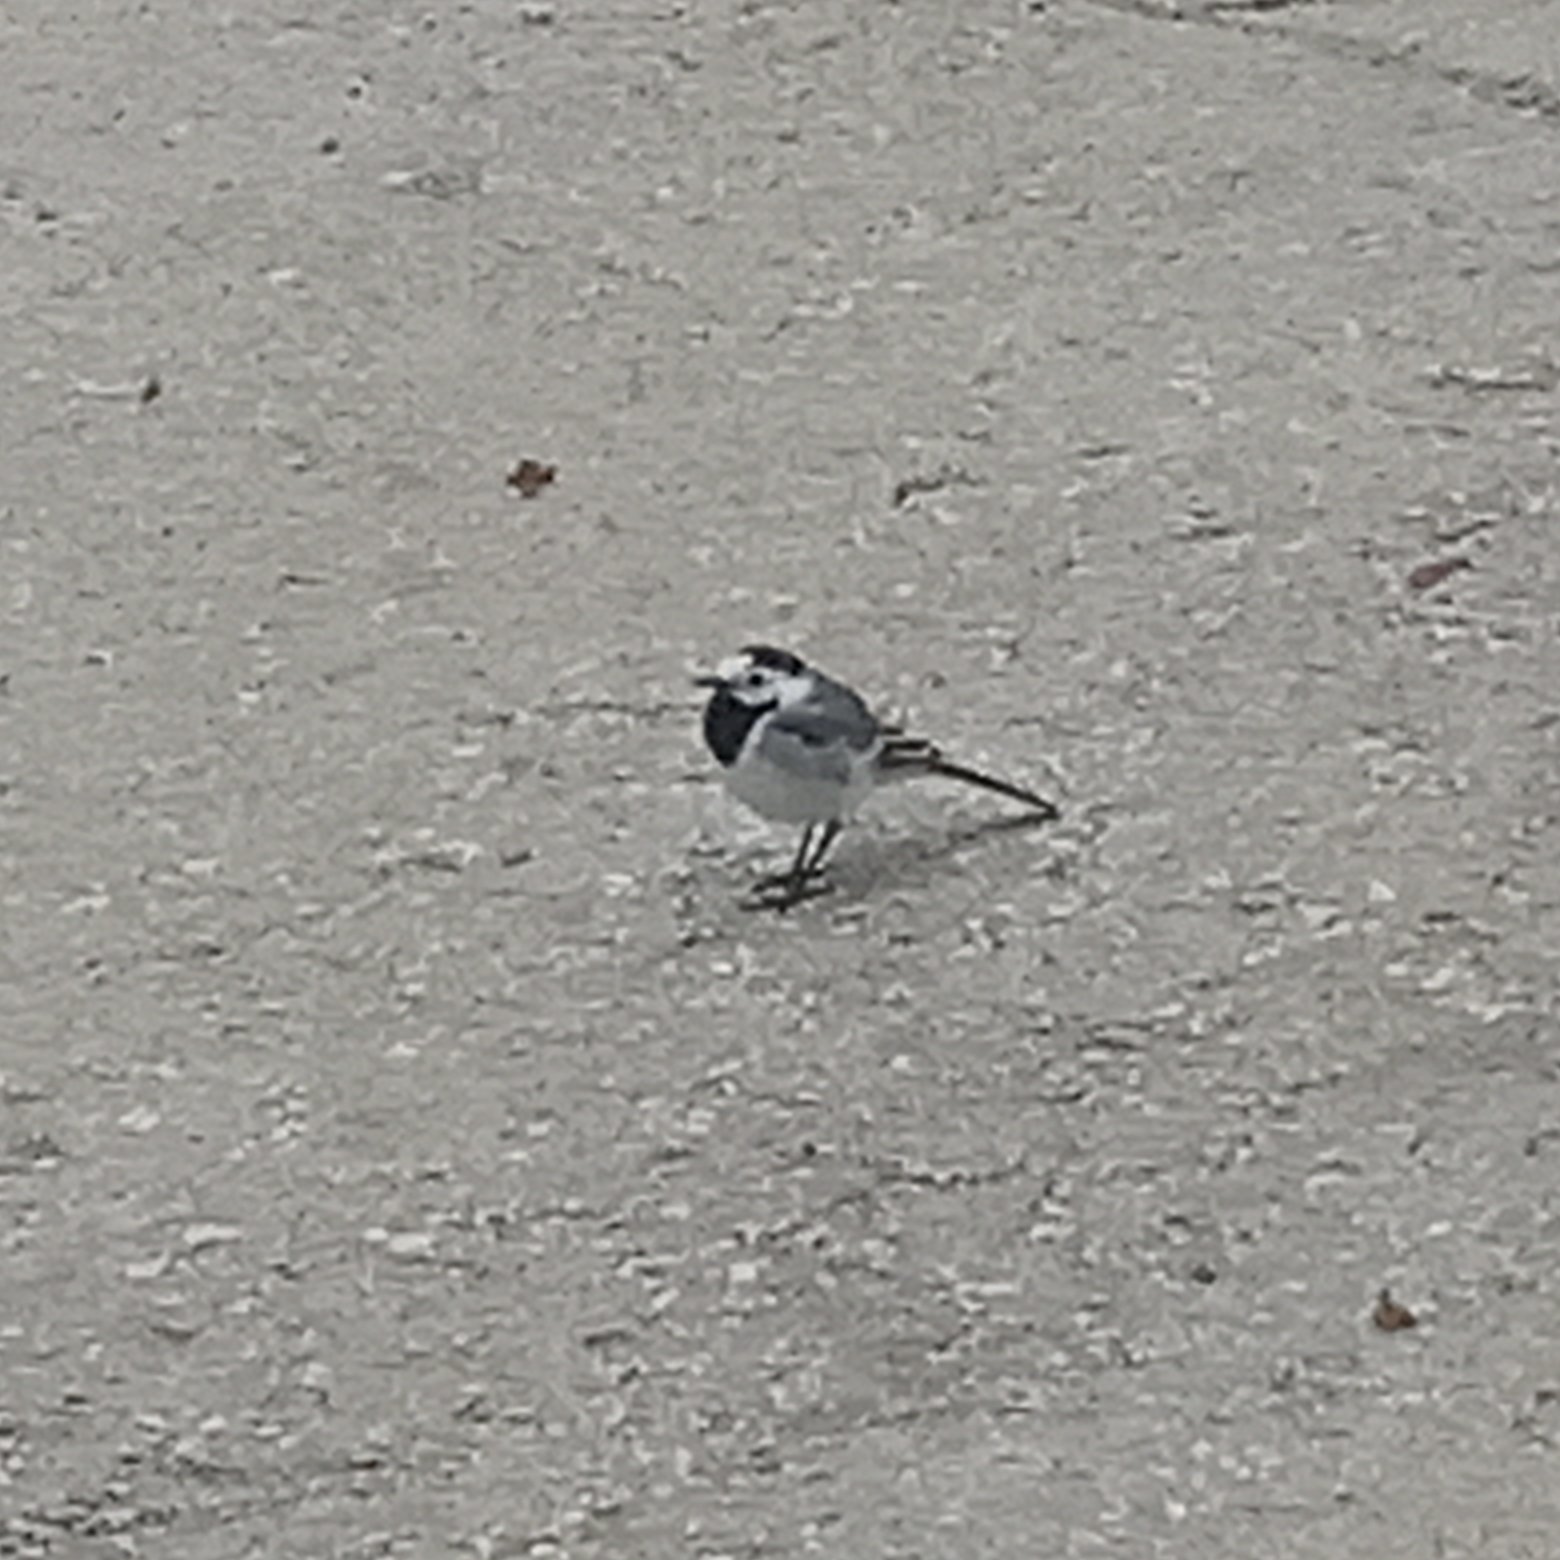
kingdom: Animalia
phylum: Chordata
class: Aves
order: Passeriformes
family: Motacillidae
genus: Motacilla
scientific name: Motacilla alba
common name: White wagtail
